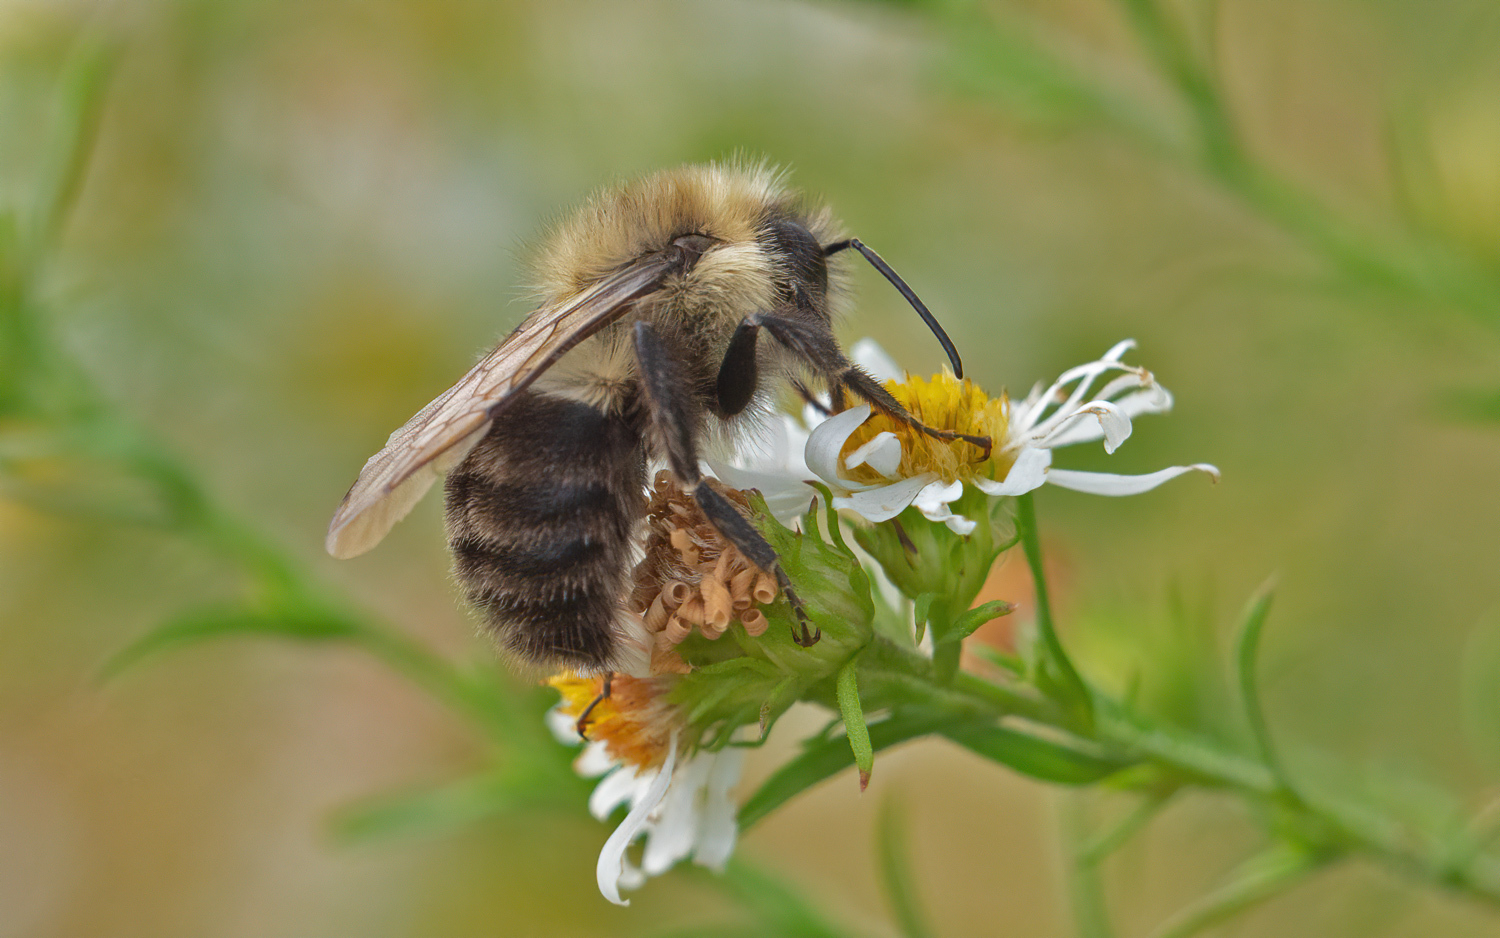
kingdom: Animalia
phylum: Arthropoda
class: Insecta
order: Hymenoptera
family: Apidae
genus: Bombus
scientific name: Bombus impatiens
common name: Common eastern bumble bee
